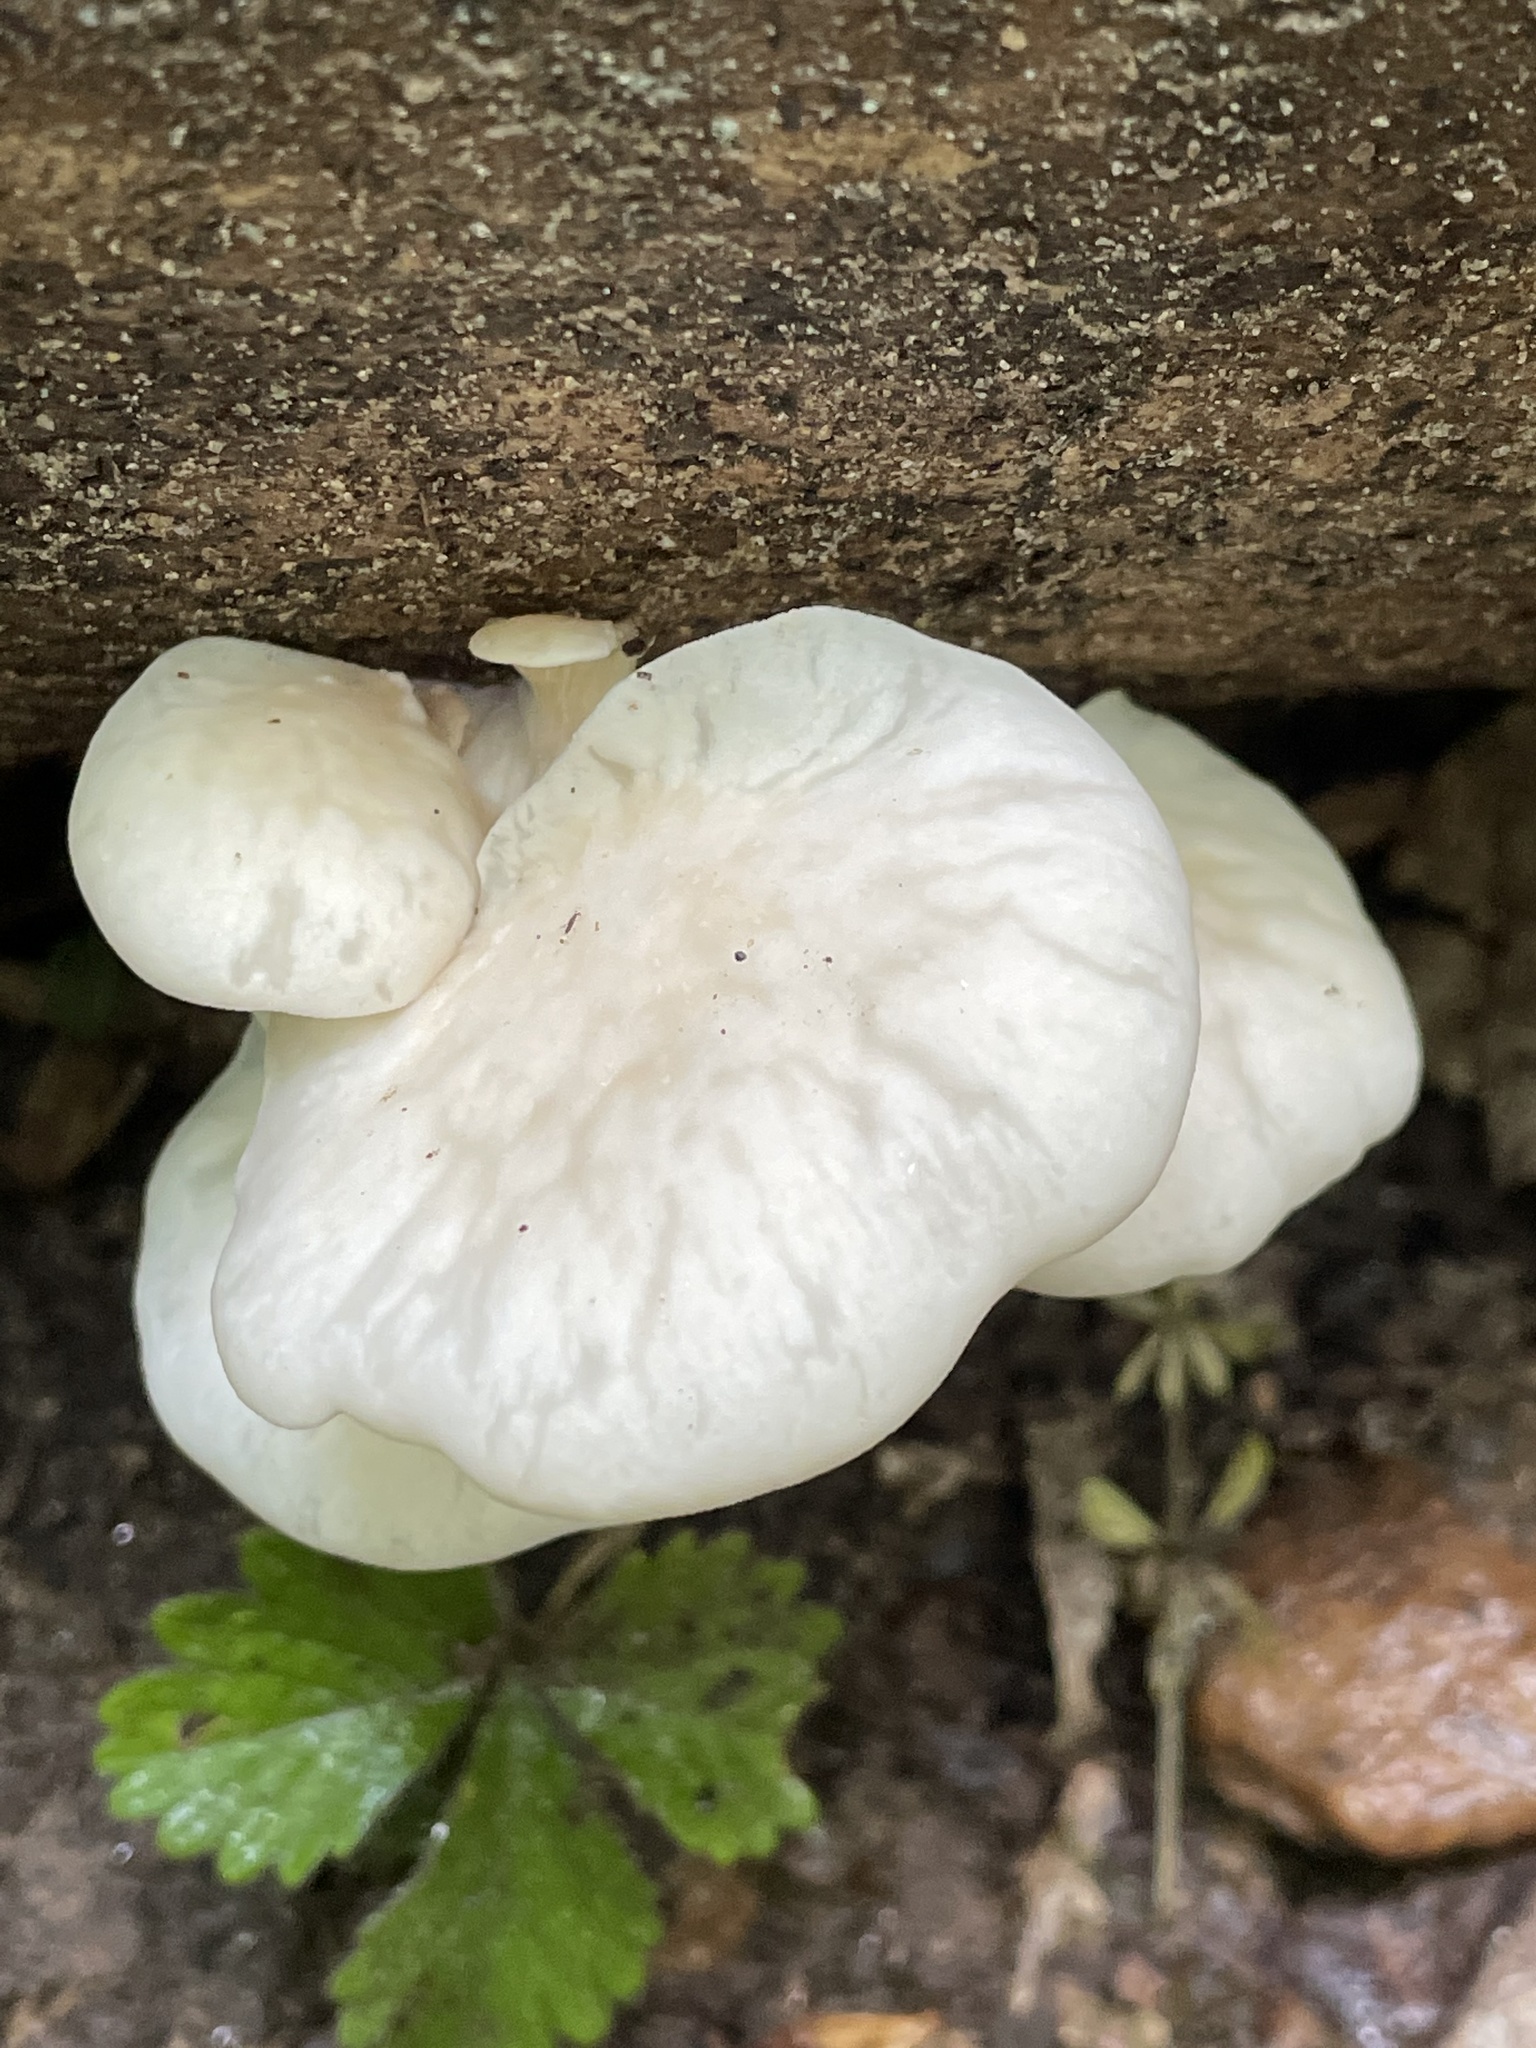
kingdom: Fungi
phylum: Basidiomycota
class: Agaricomycetes
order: Agaricales
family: Pleurotaceae
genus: Pleurotus
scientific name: Pleurotus pulmonarius
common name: Pale oyster
